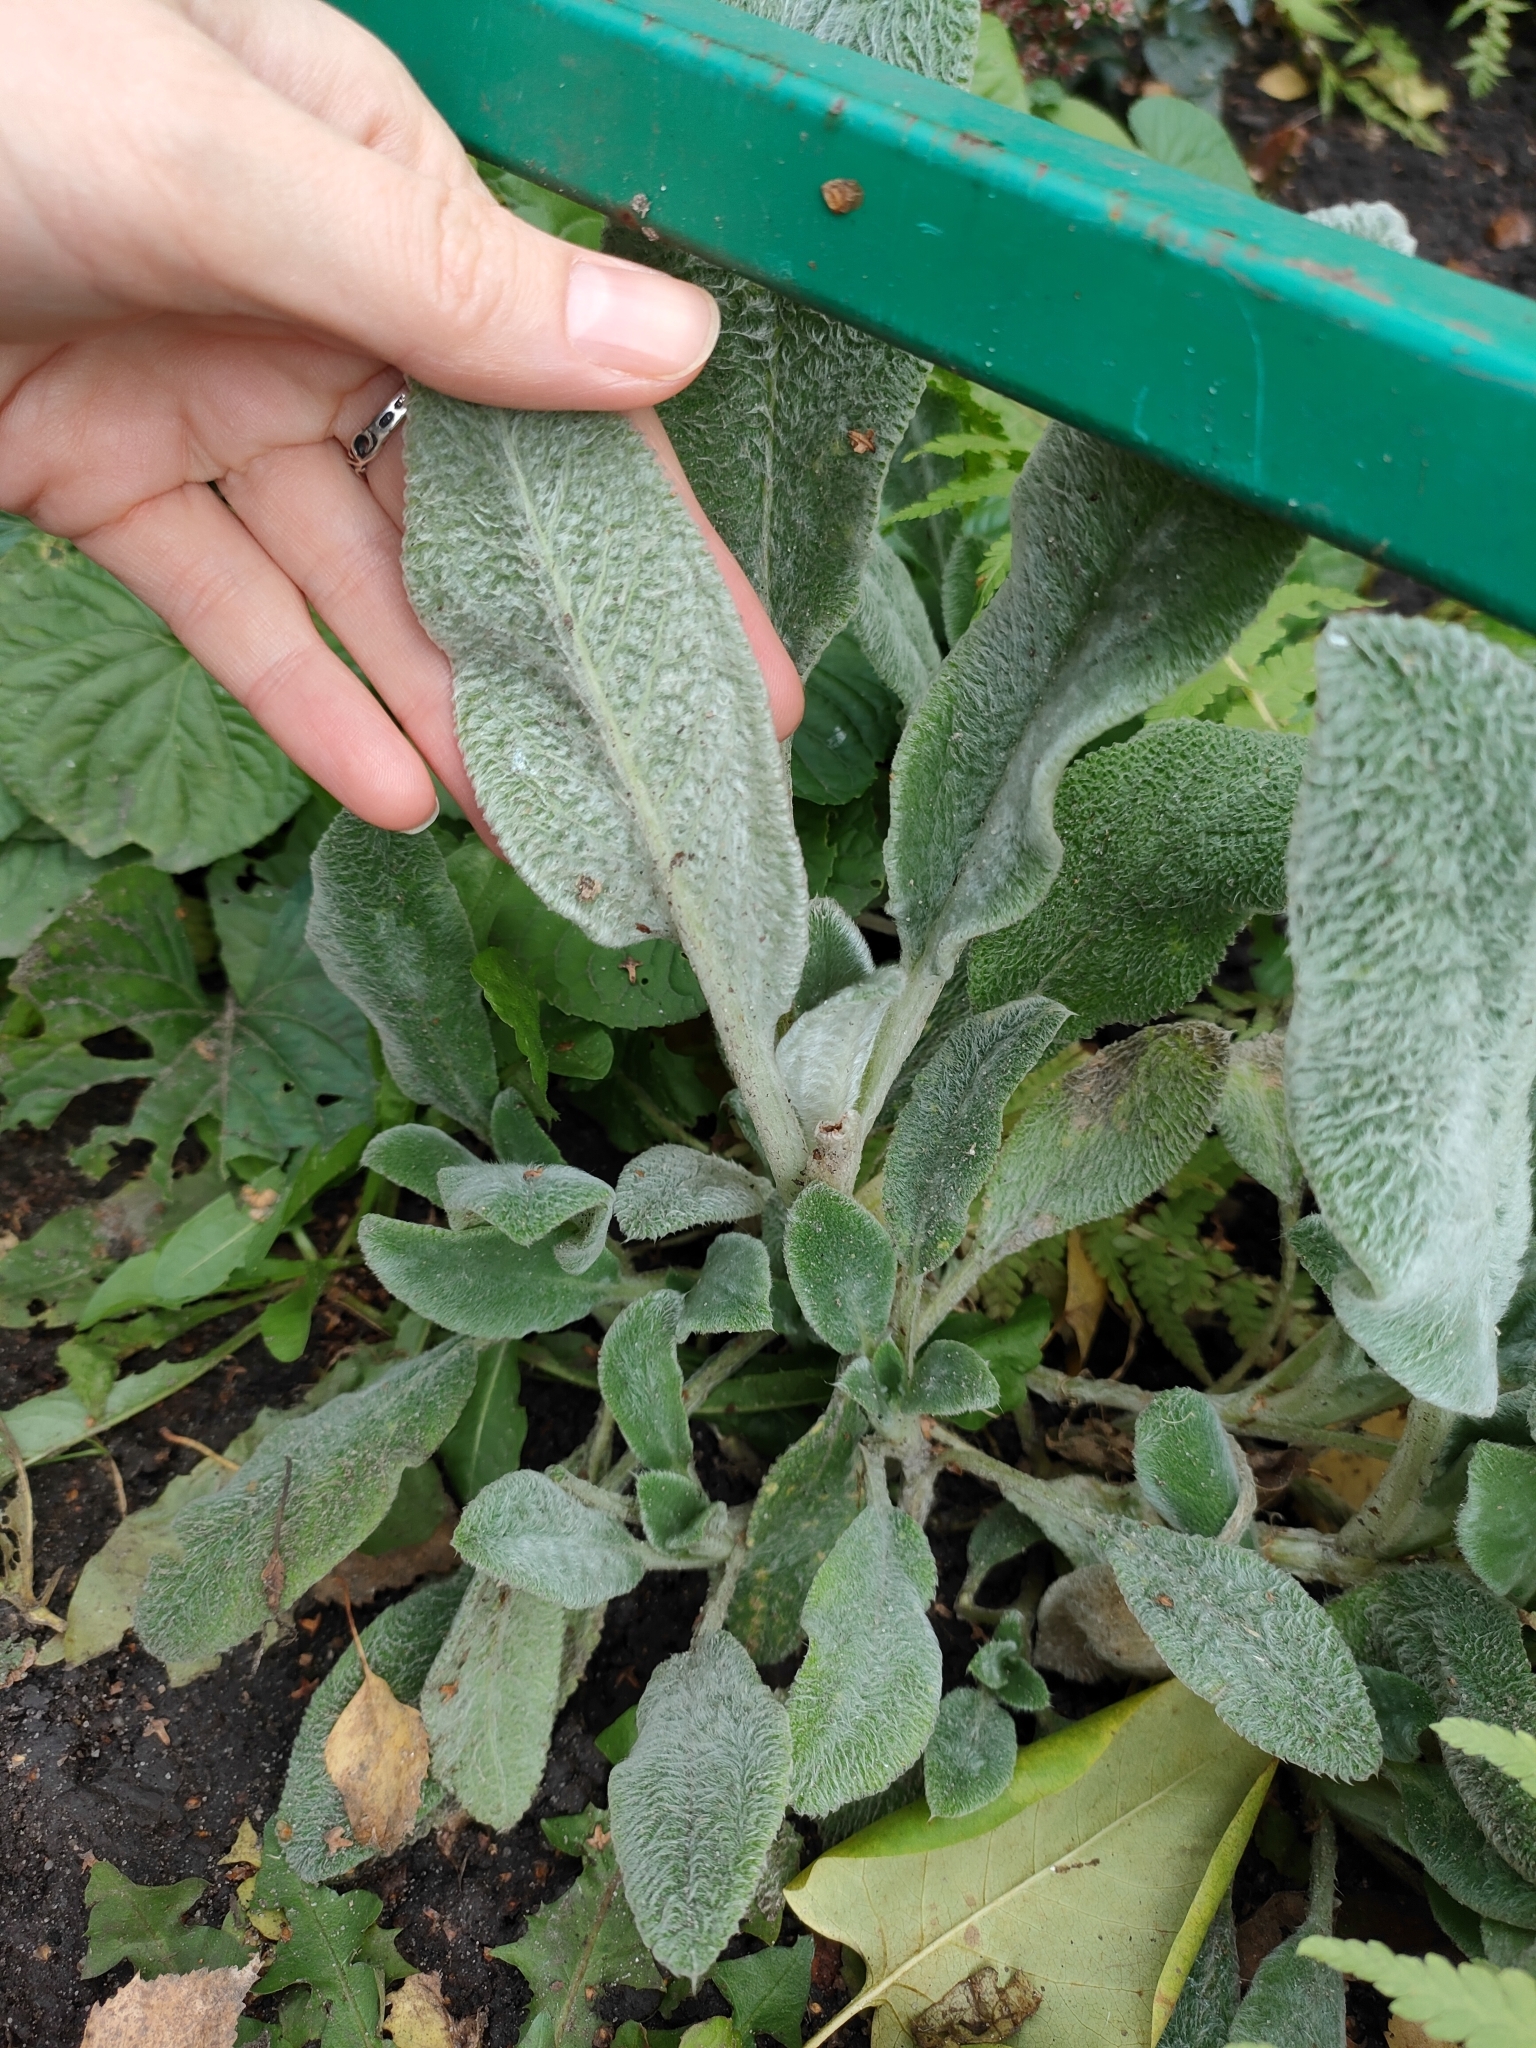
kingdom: Plantae
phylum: Tracheophyta
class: Magnoliopsida
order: Lamiales
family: Lamiaceae
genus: Stachys
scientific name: Stachys byzantina
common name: Lamb's-ear
